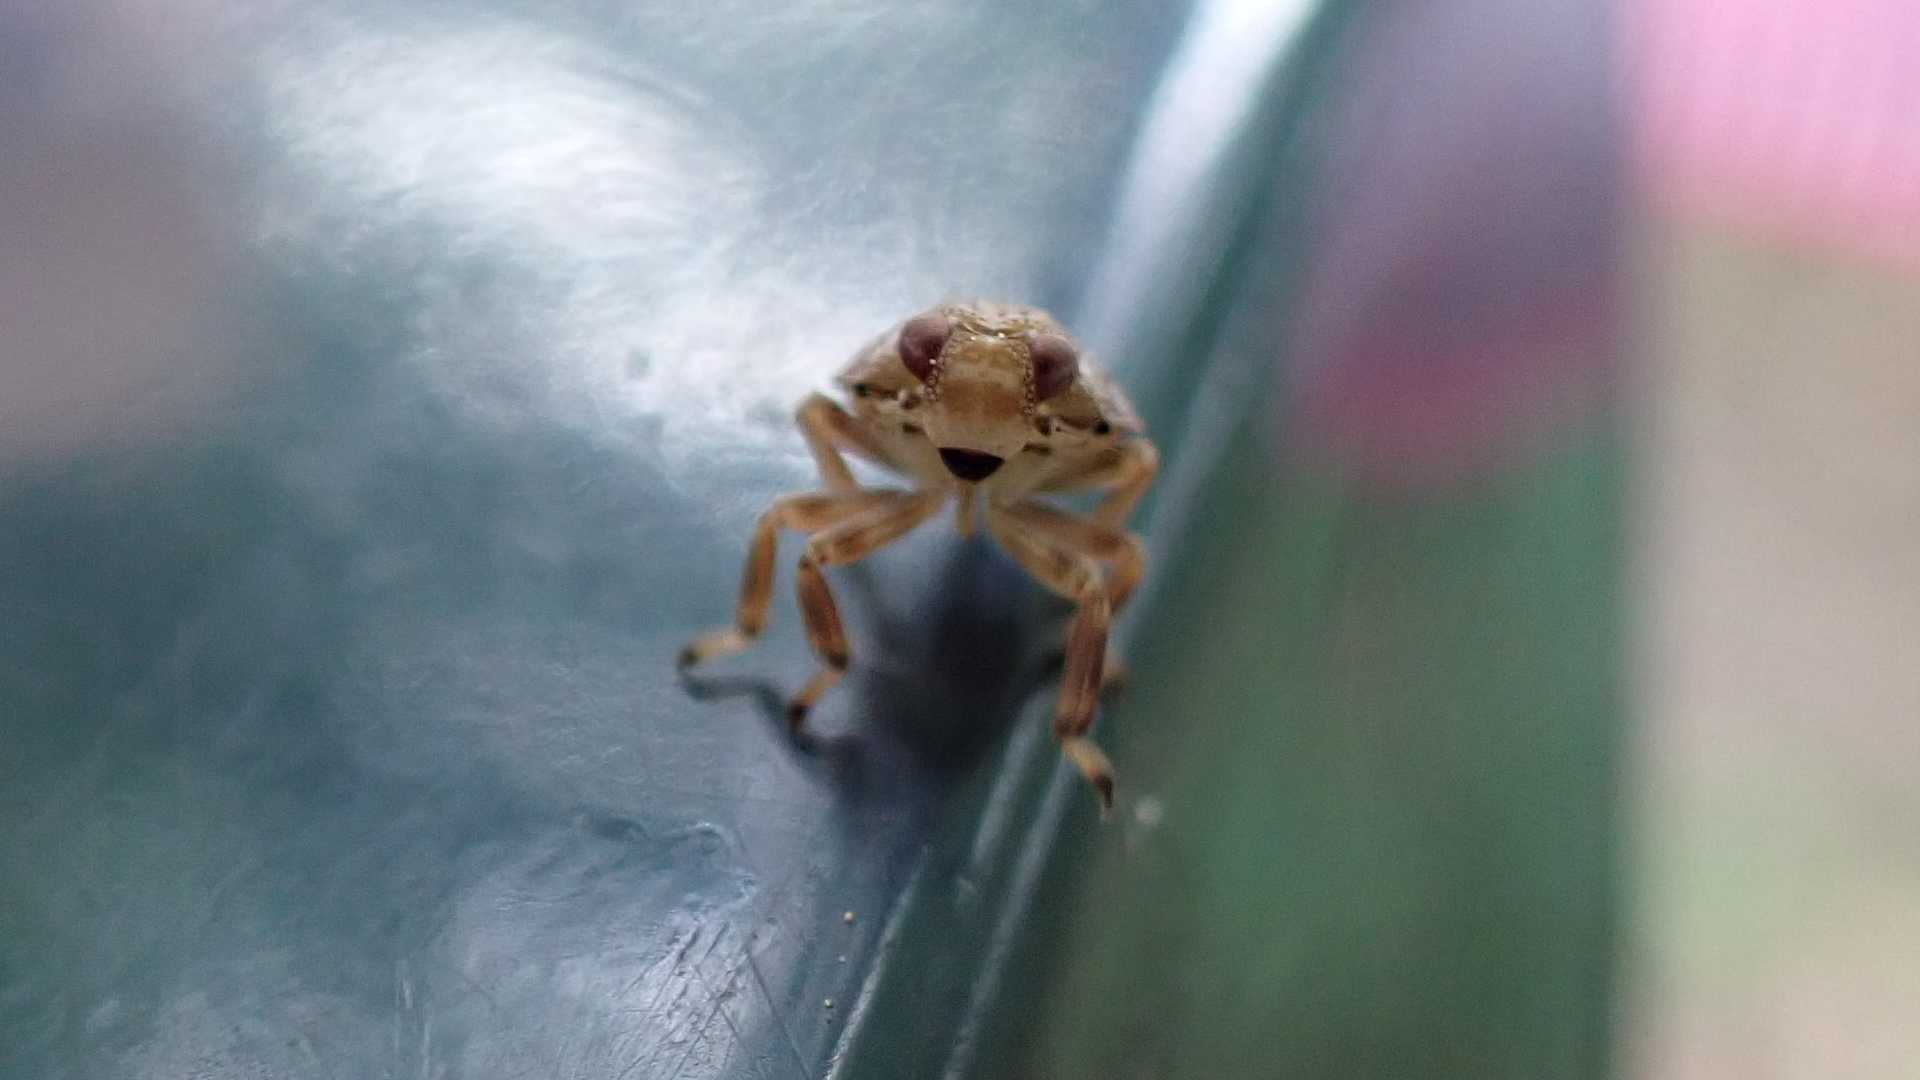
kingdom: Animalia
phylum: Arthropoda
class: Insecta
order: Hemiptera
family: Issidae
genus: Issus
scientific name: Issus
